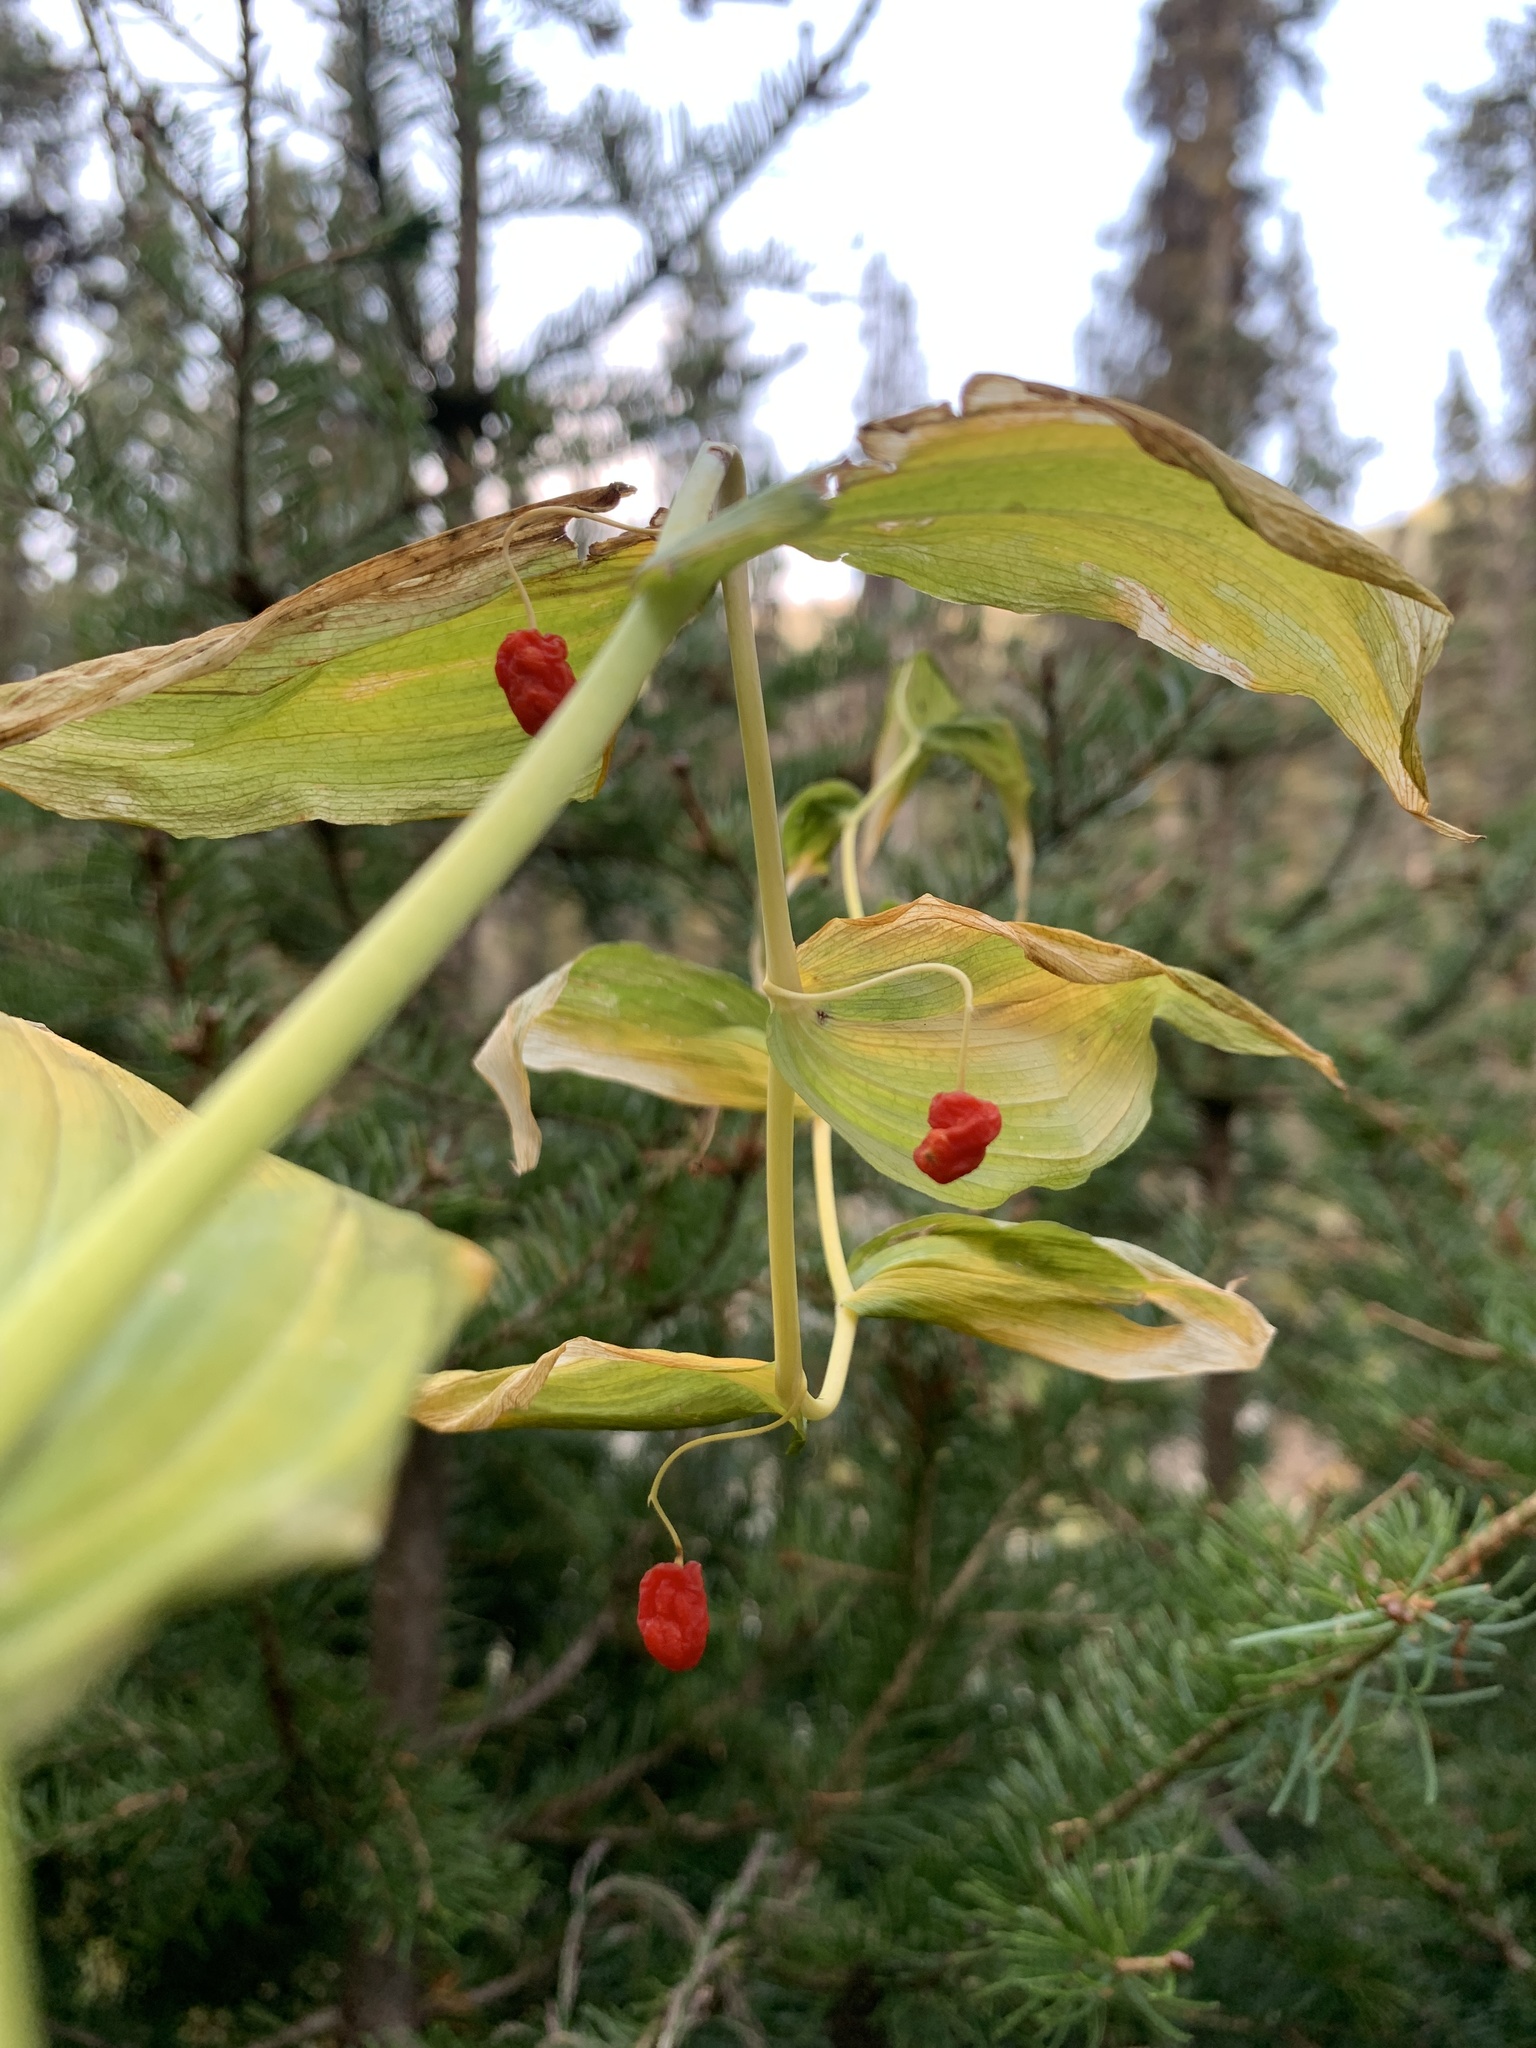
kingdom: Plantae
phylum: Tracheophyta
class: Liliopsida
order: Liliales
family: Liliaceae
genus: Streptopus
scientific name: Streptopus amplexifolius
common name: Clasp twisted stalk
